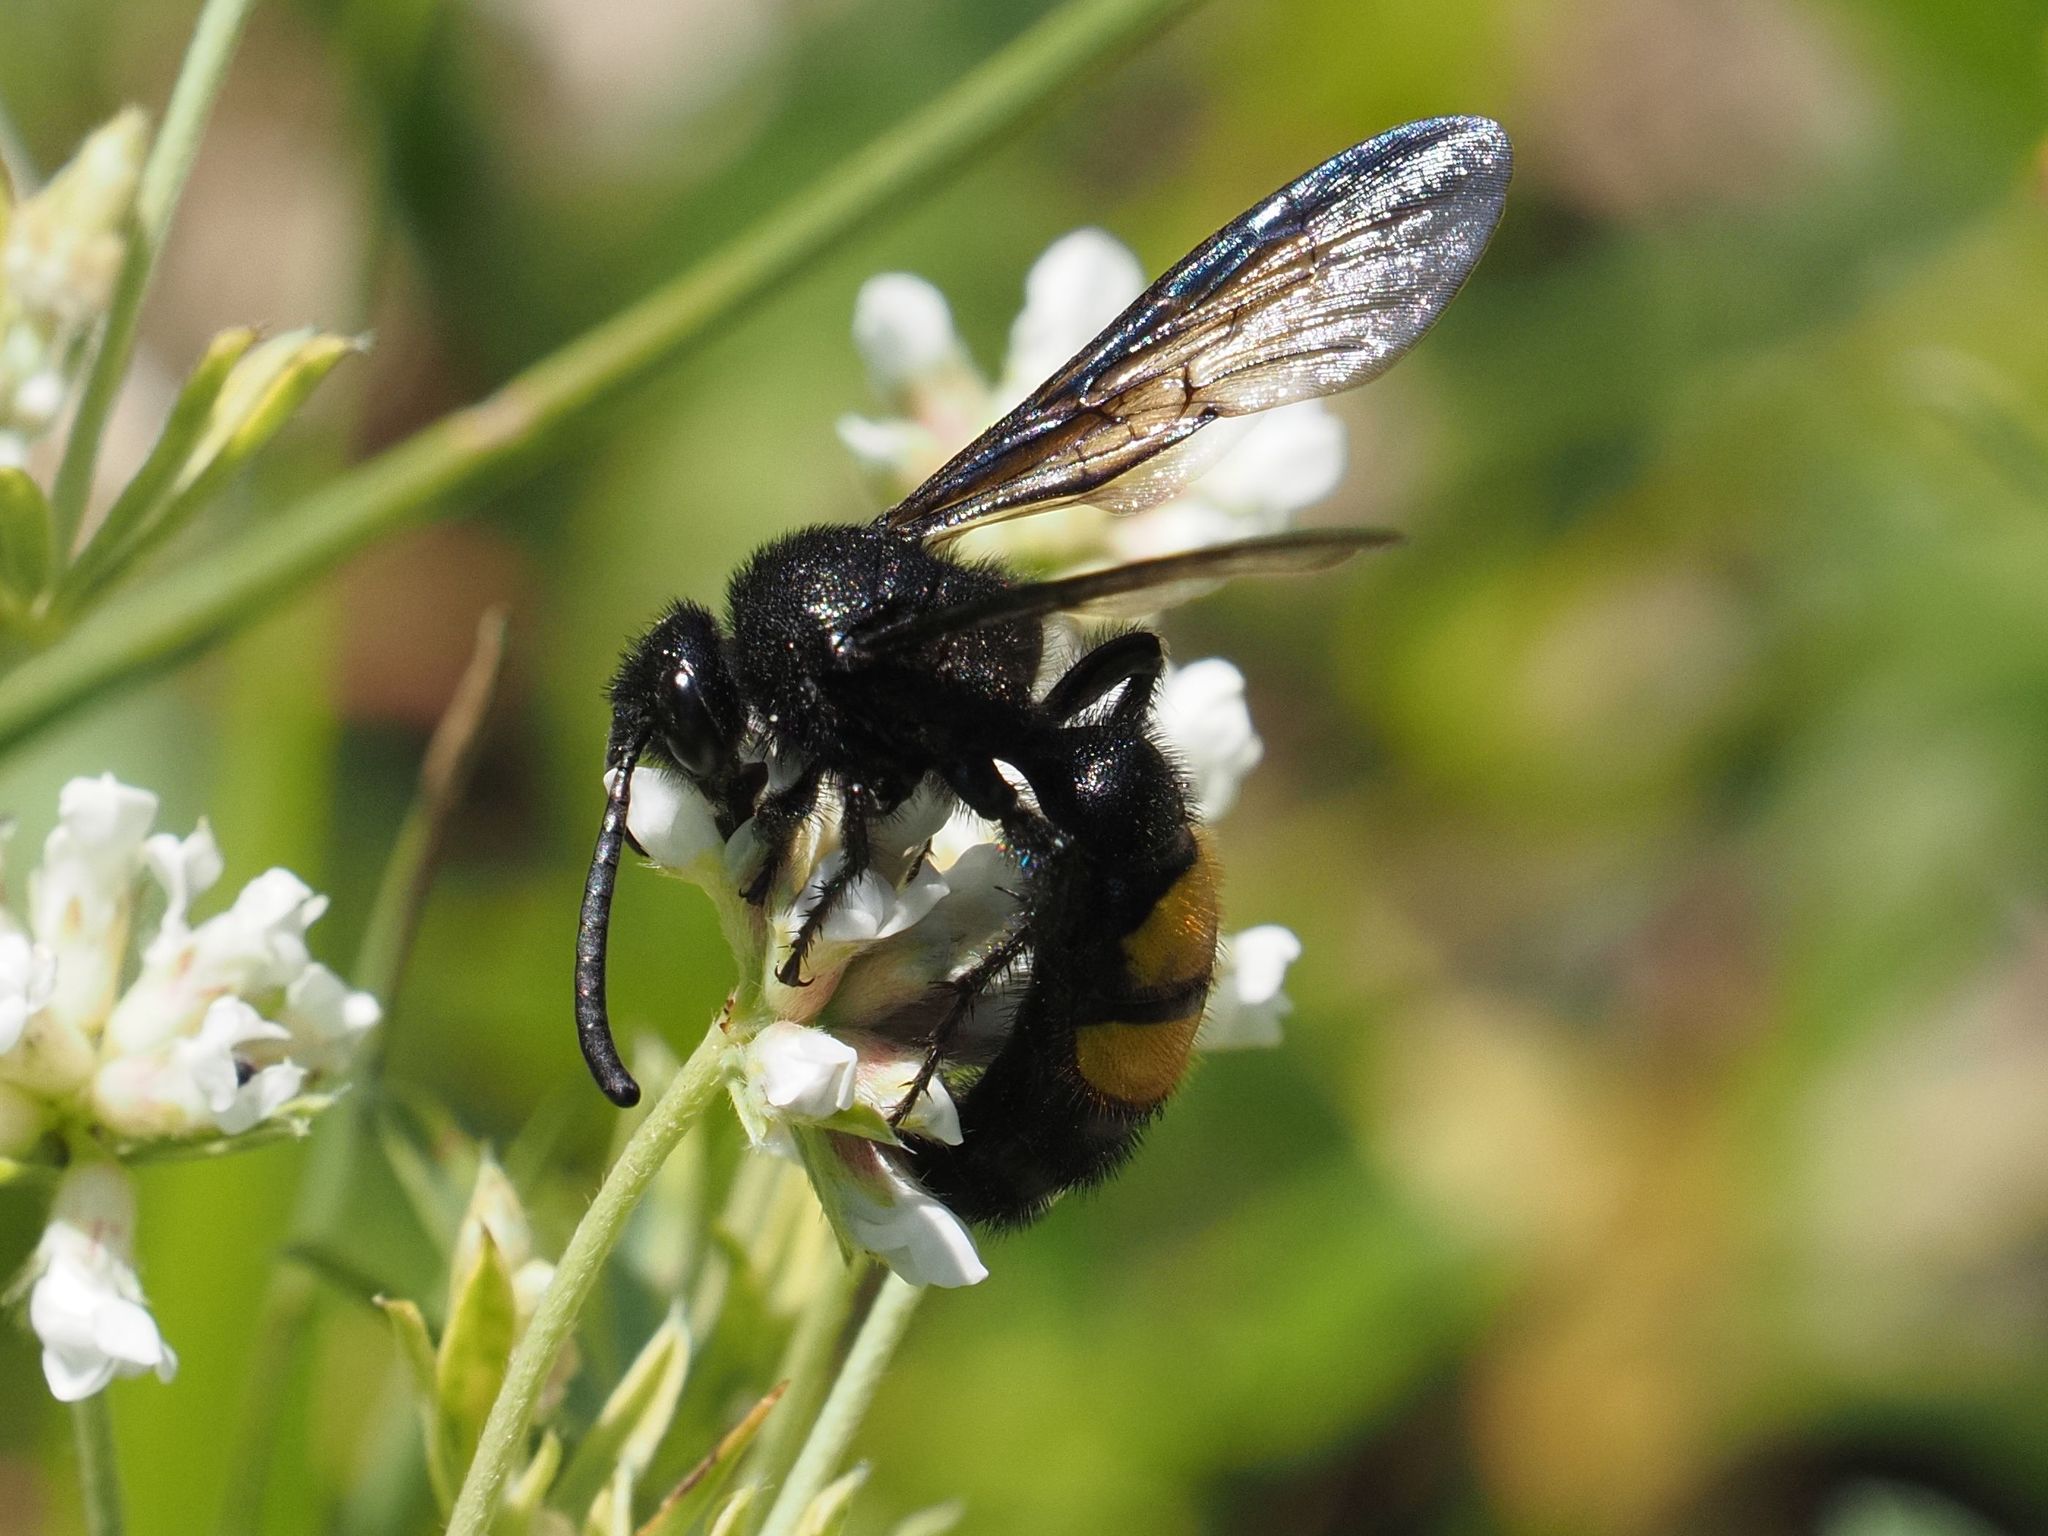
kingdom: Animalia
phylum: Arthropoda
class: Insecta
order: Hymenoptera
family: Scoliidae
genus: Scolia
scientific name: Scolia hirta
